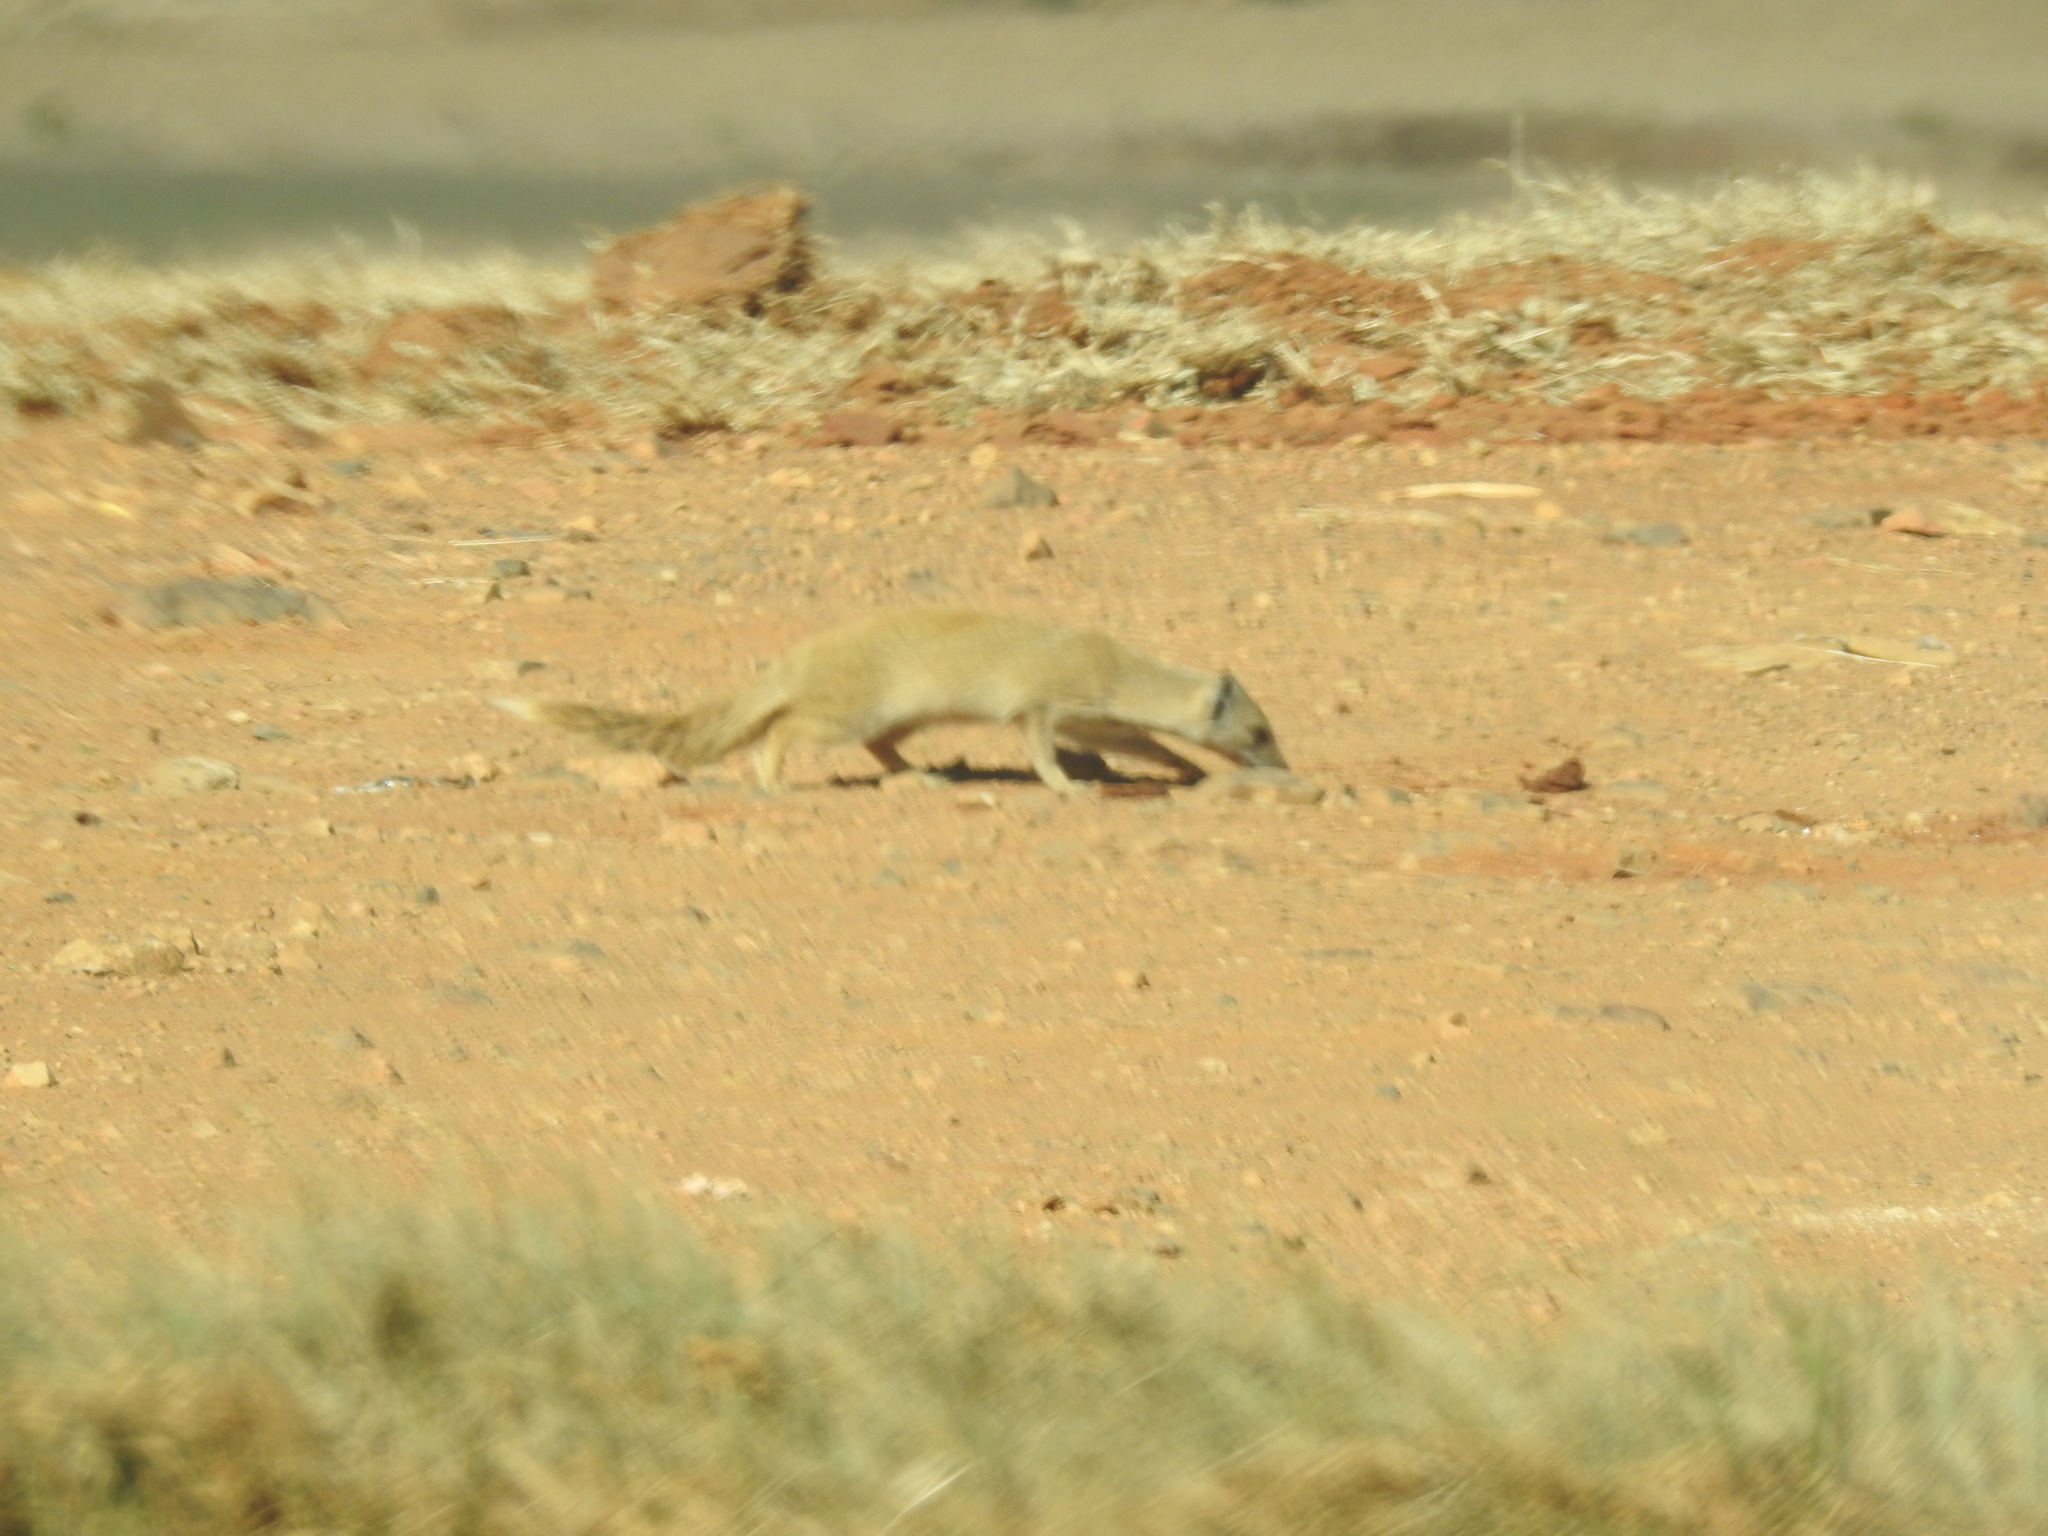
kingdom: Animalia
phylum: Chordata
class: Mammalia
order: Carnivora
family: Herpestidae
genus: Cynictis
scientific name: Cynictis penicillata
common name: Yellow mongoose
